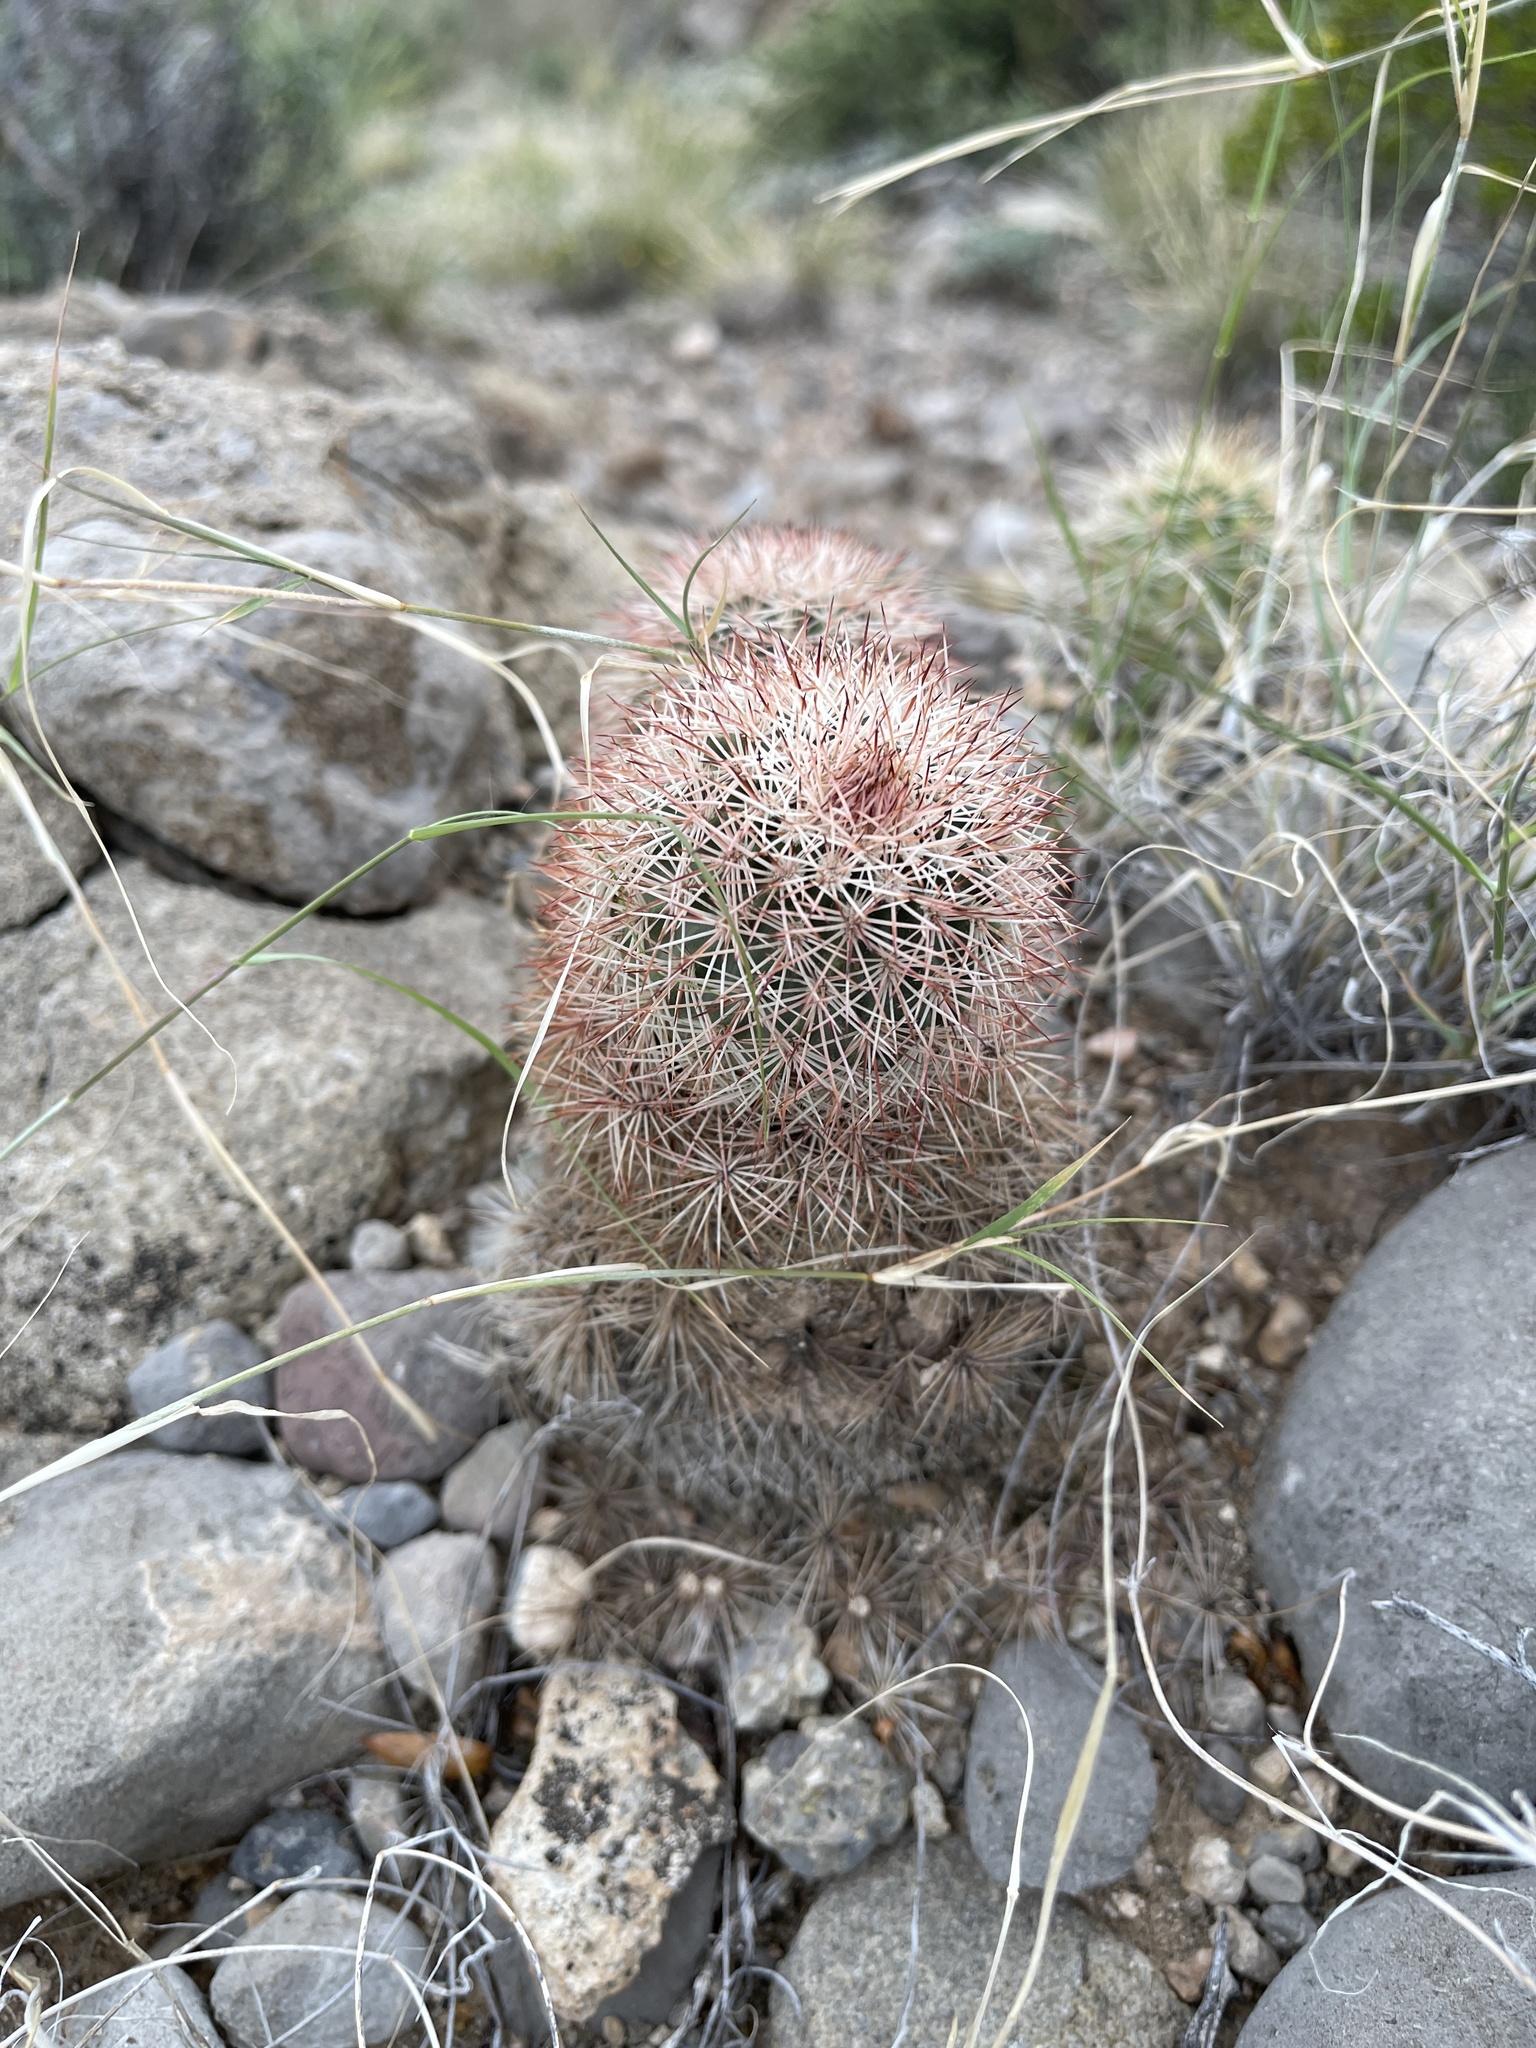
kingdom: Plantae
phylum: Tracheophyta
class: Magnoliopsida
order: Caryophyllales
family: Cactaceae
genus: Echinocereus
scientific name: Echinocereus dasyacanthus
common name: Spiny hedgehog cactus
